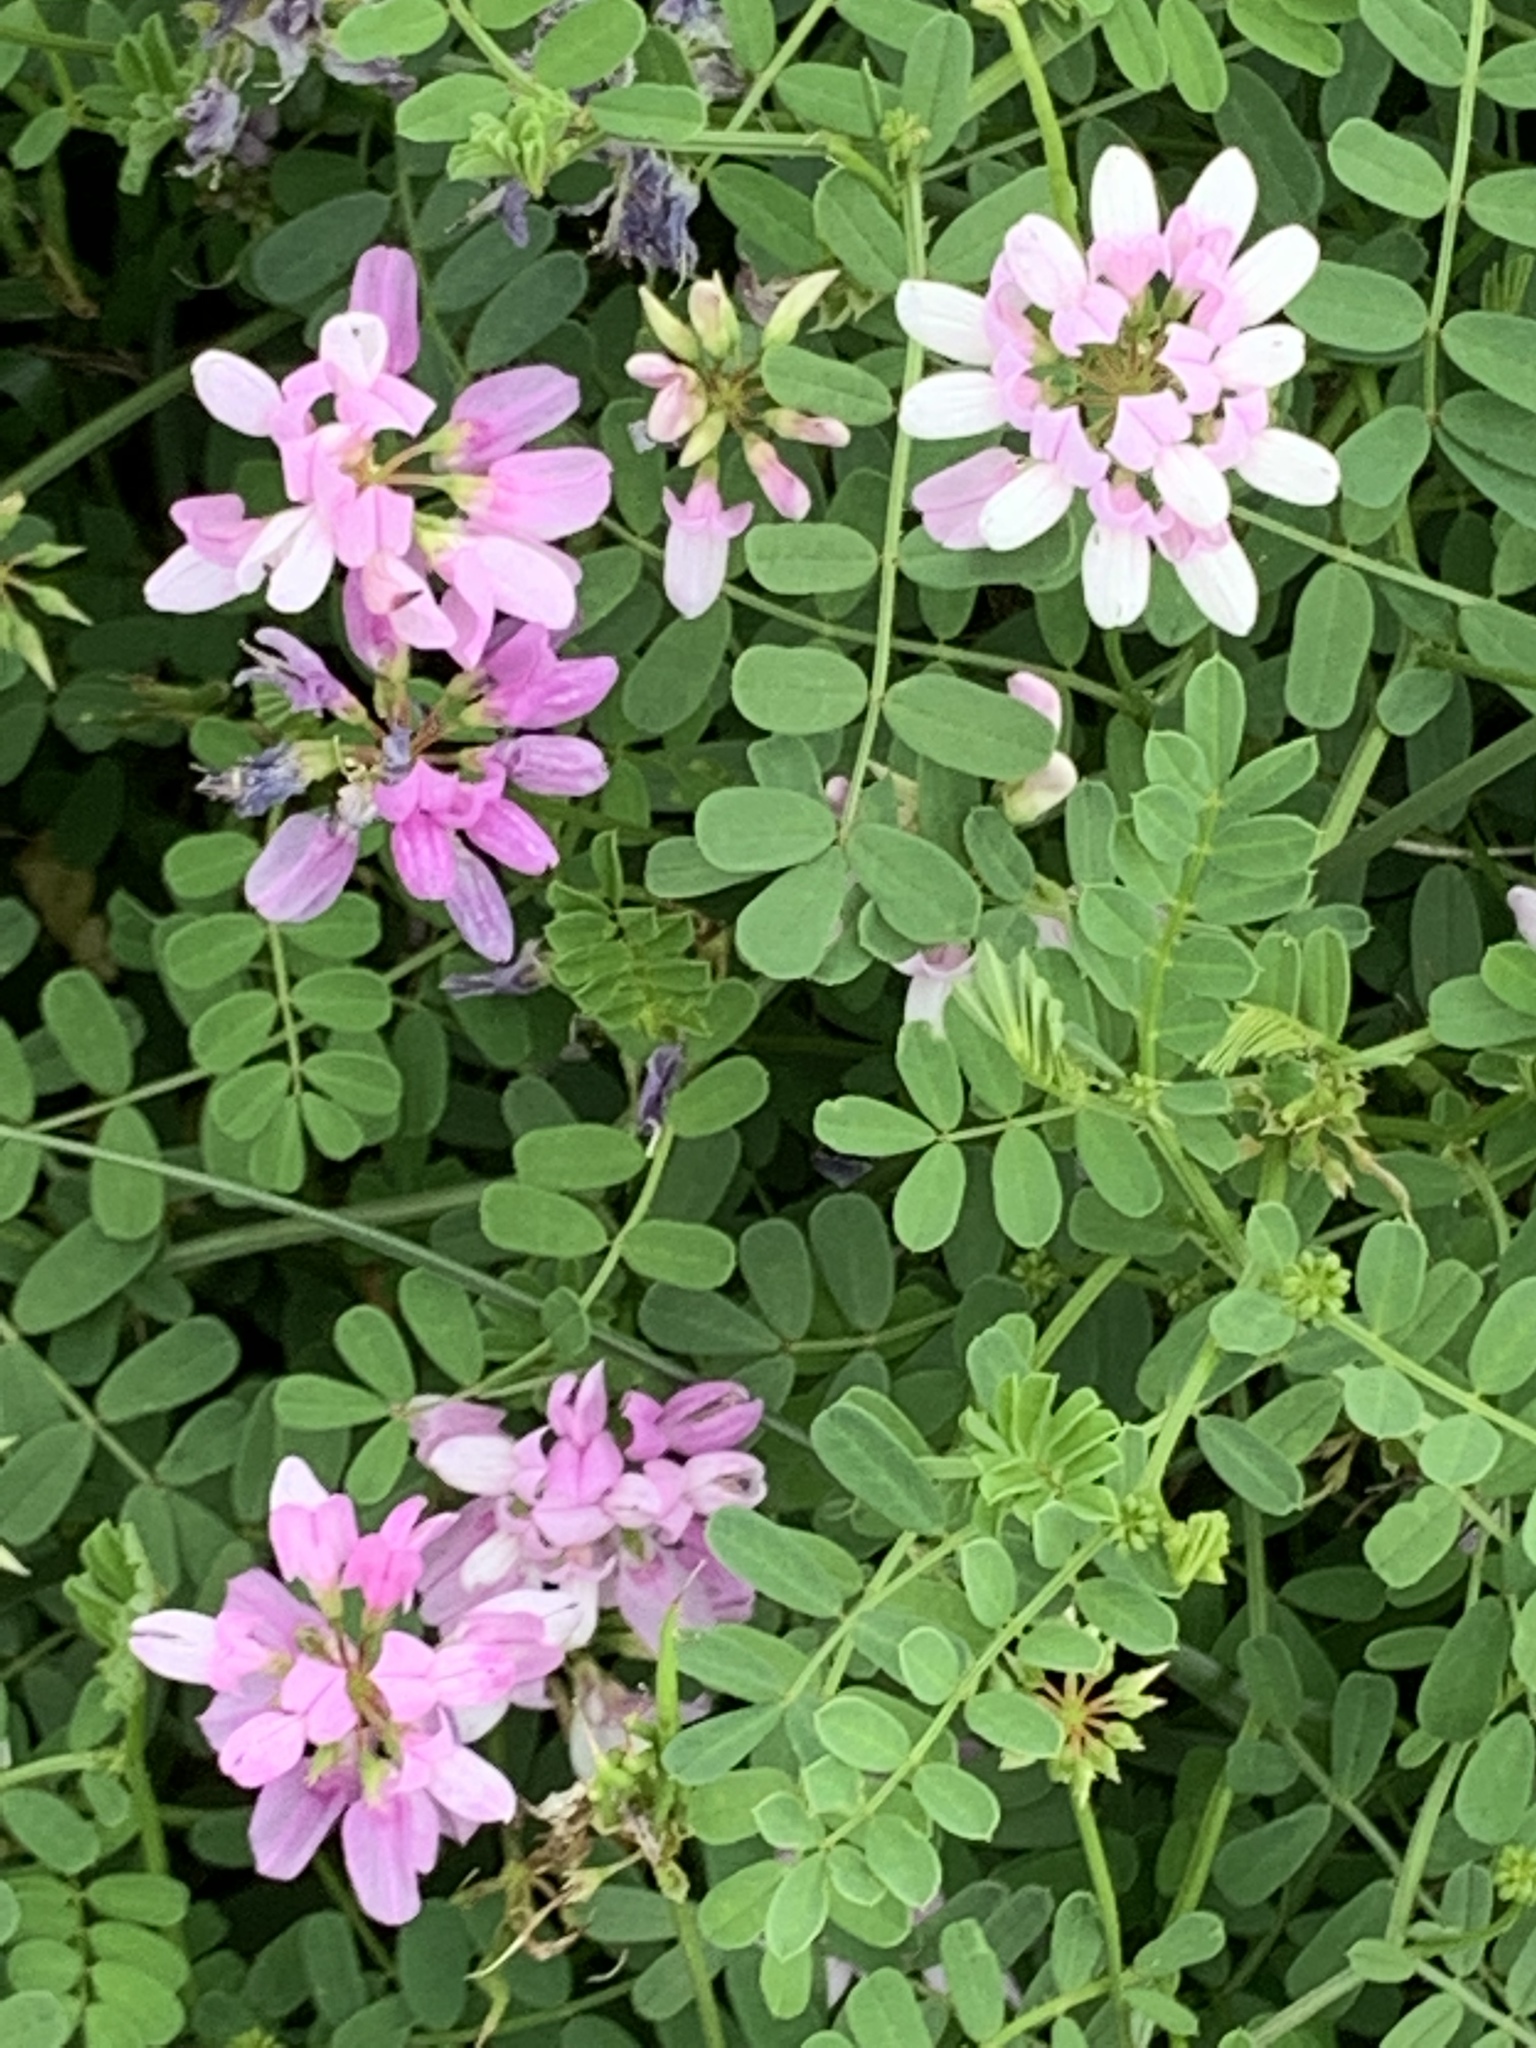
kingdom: Plantae
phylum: Tracheophyta
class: Magnoliopsida
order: Fabales
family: Fabaceae
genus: Coronilla
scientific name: Coronilla varia
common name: Crownvetch
